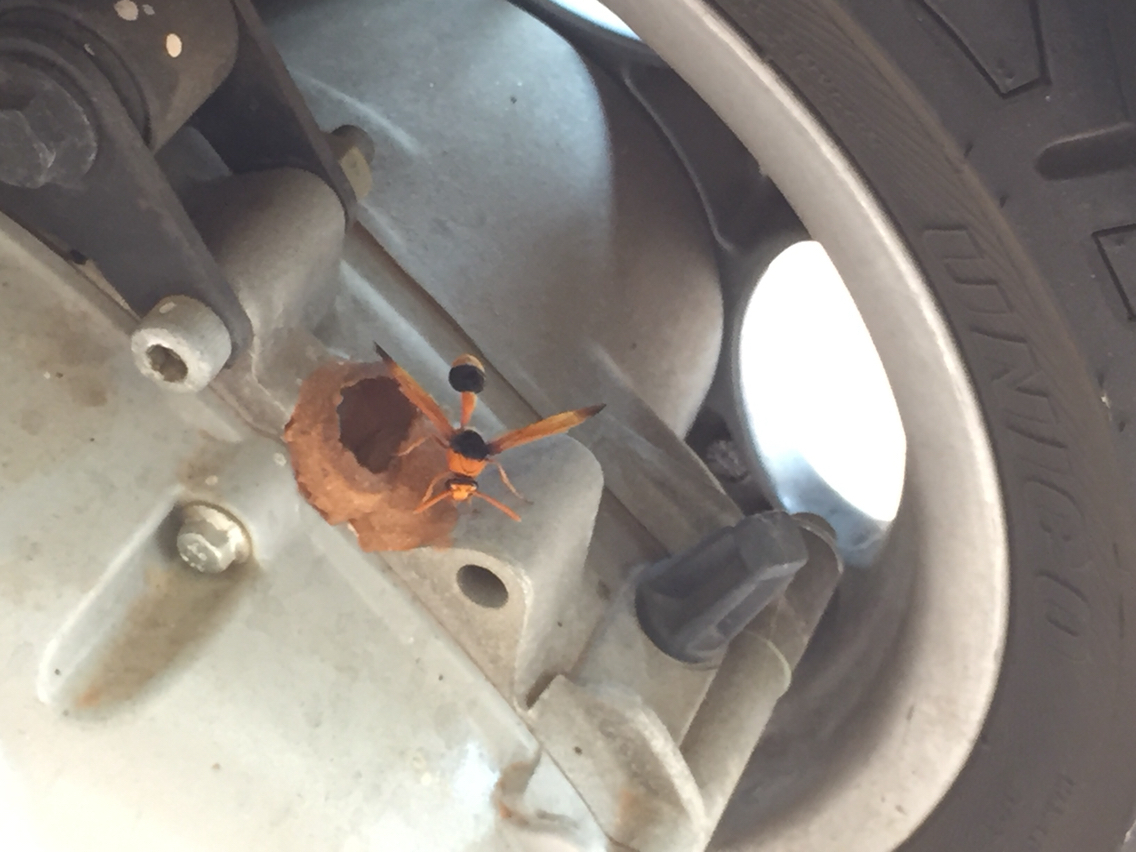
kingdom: Animalia
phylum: Arthropoda
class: Insecta
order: Hymenoptera
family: Eumenidae
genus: Delta
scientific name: Delta latreillei
